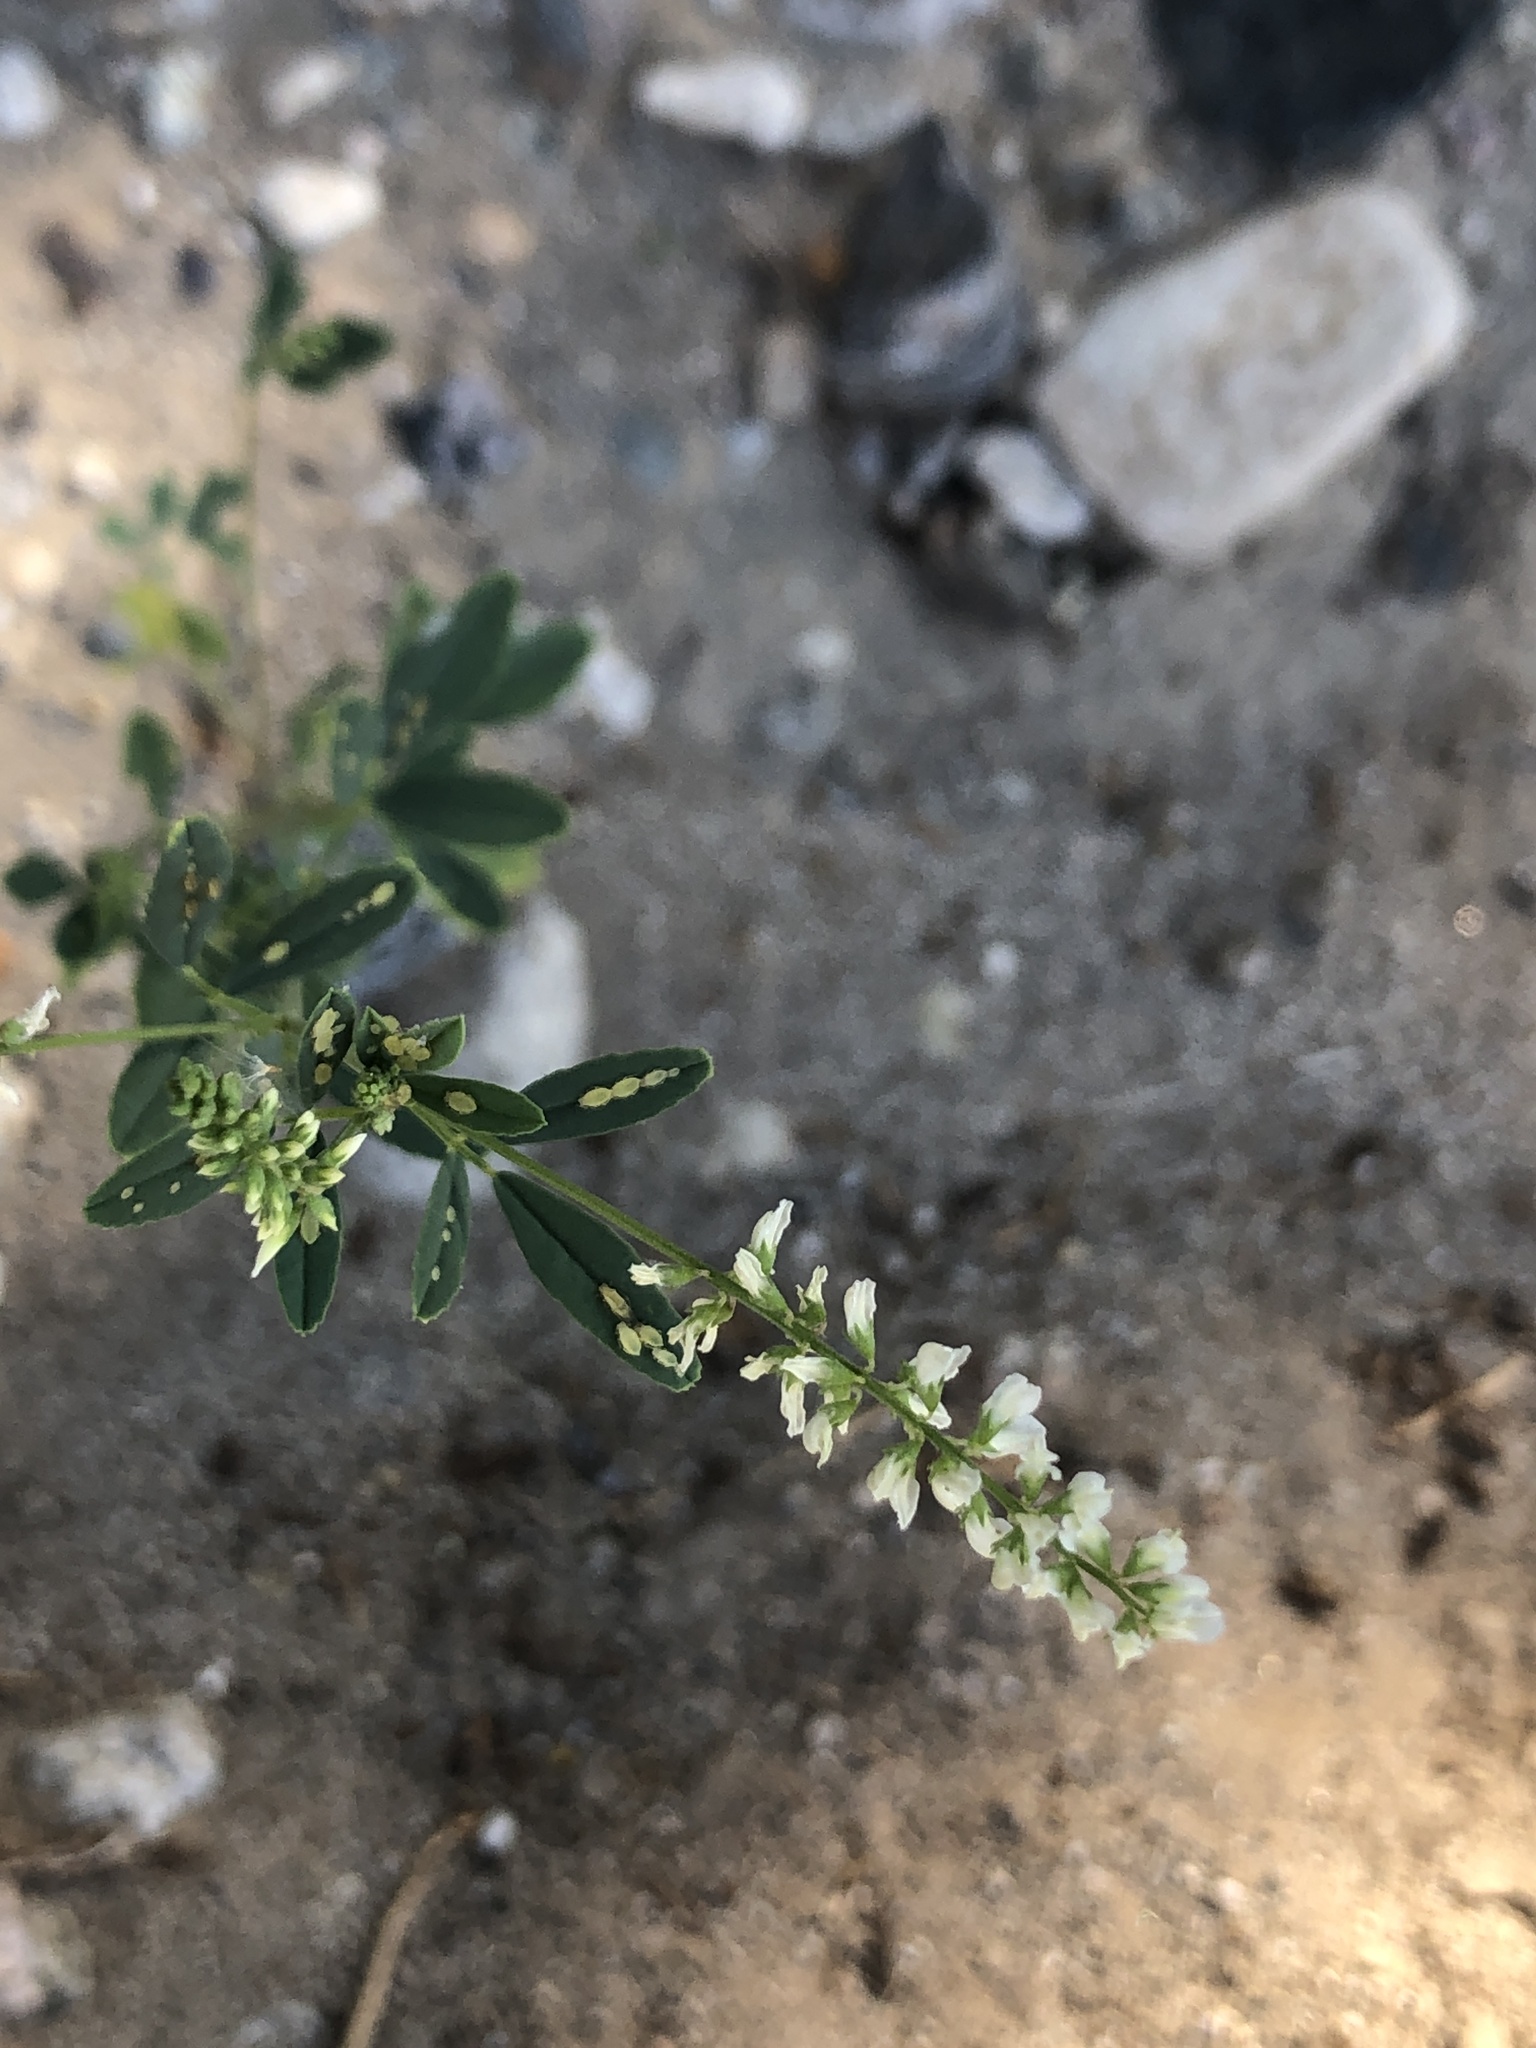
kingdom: Plantae
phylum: Tracheophyta
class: Magnoliopsida
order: Fabales
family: Fabaceae
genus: Melilotus
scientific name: Melilotus albus
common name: White melilot
